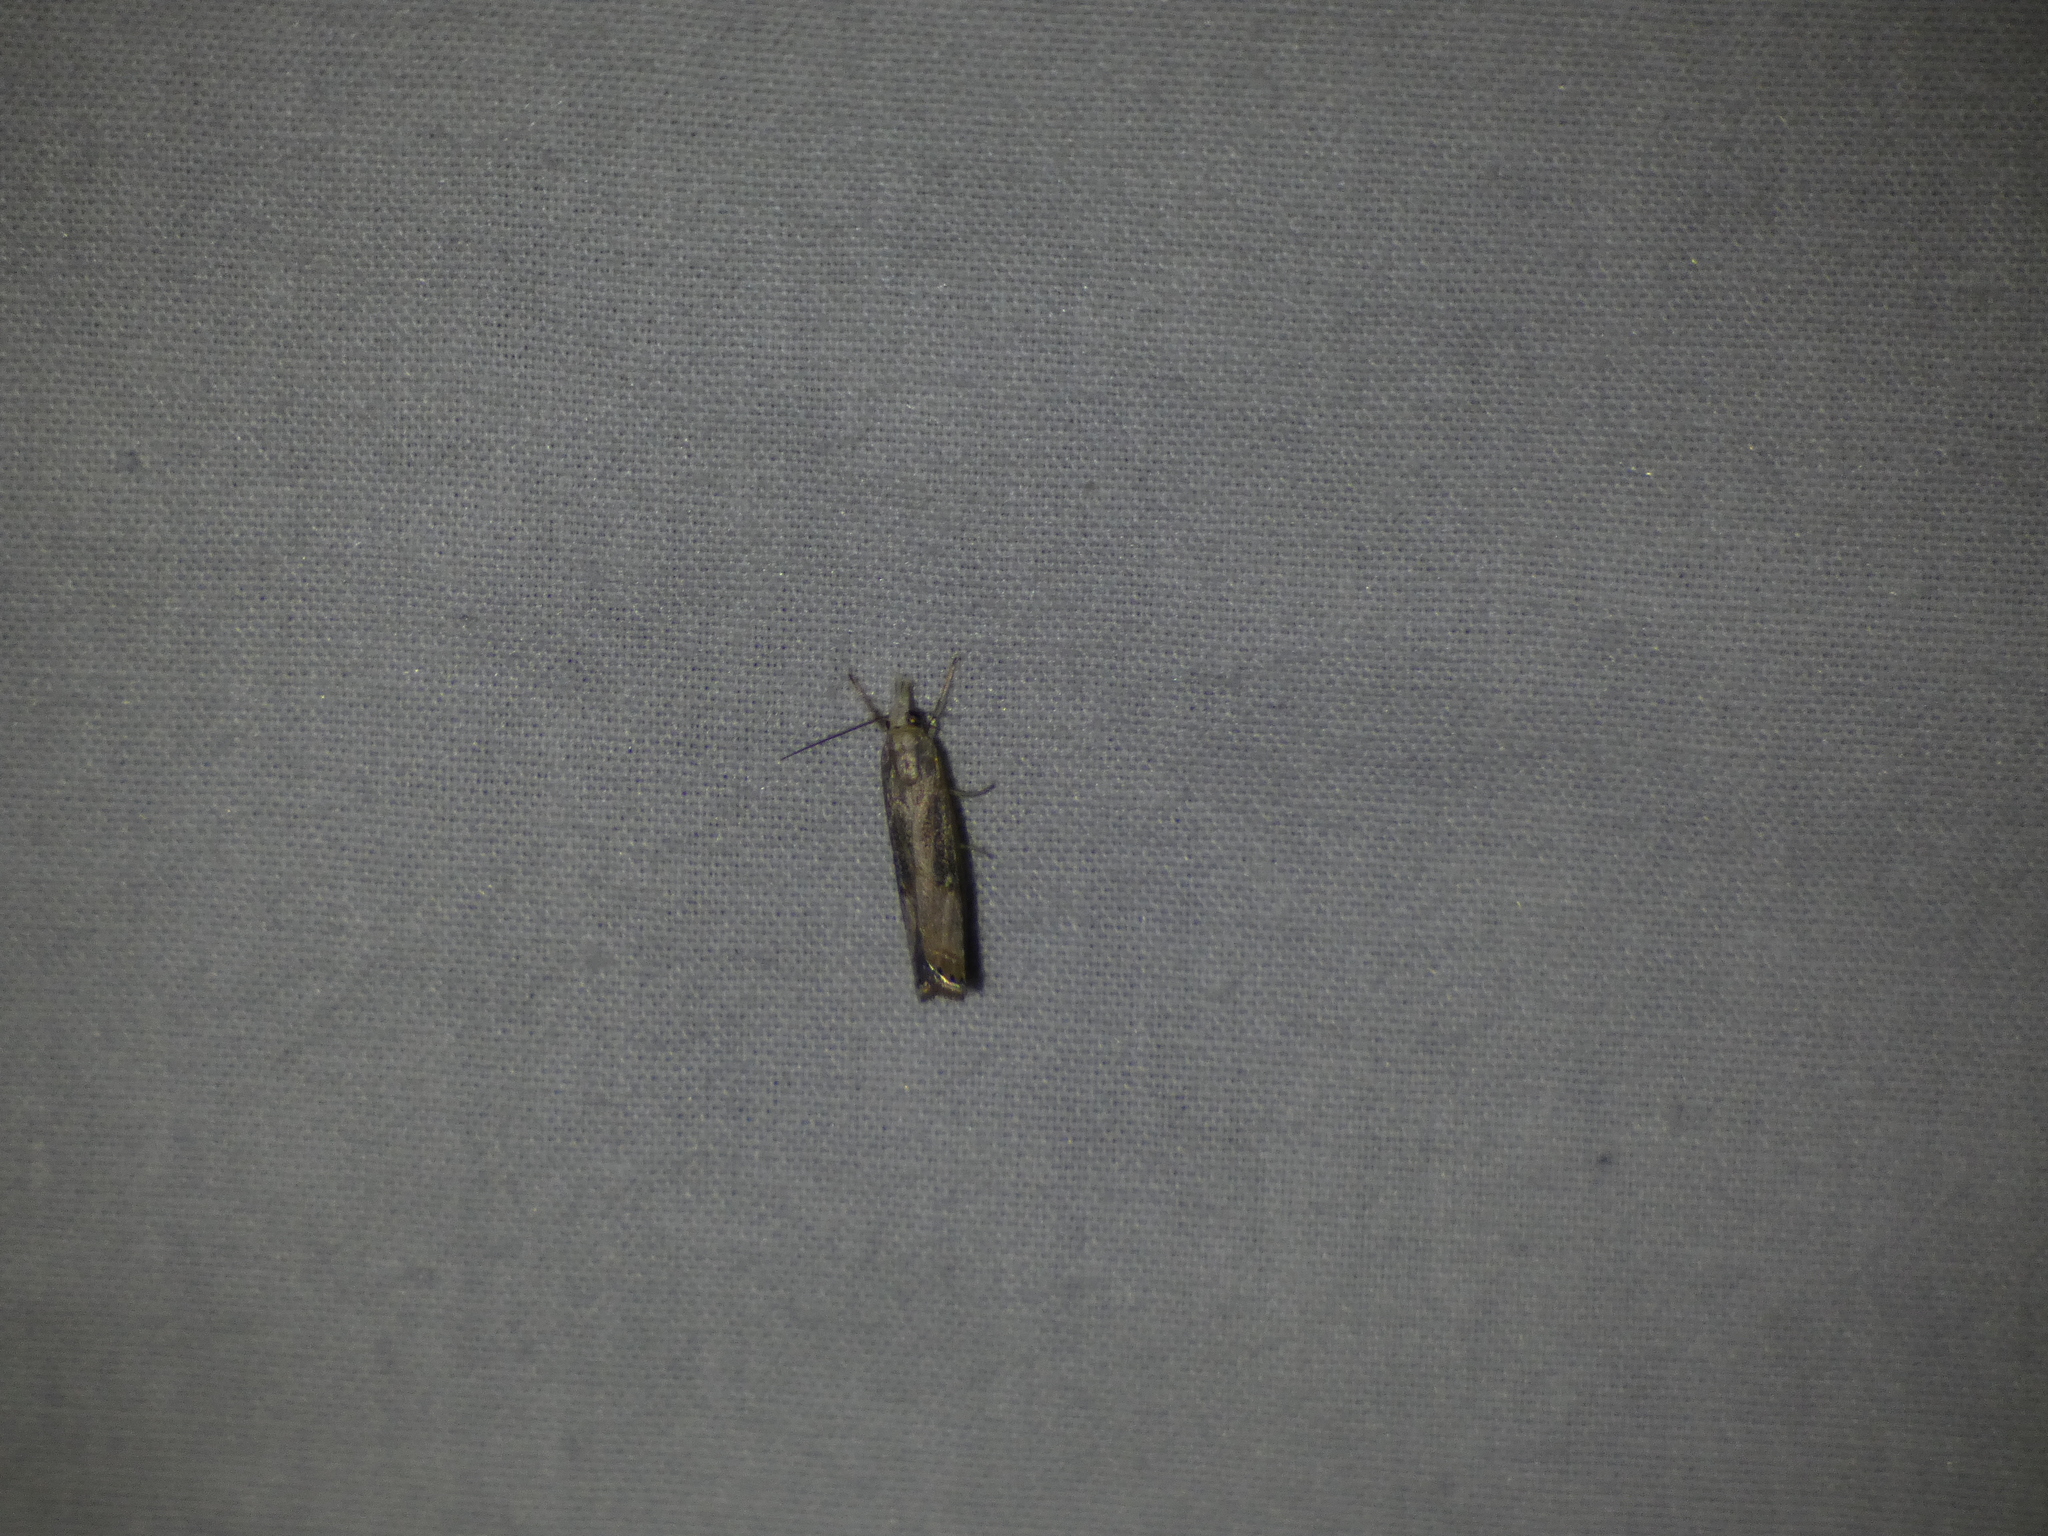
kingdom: Animalia
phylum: Arthropoda
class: Insecta
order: Lepidoptera
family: Crambidae
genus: Parapediasia
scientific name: Parapediasia teterellus
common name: Bluegrass webworm moth
